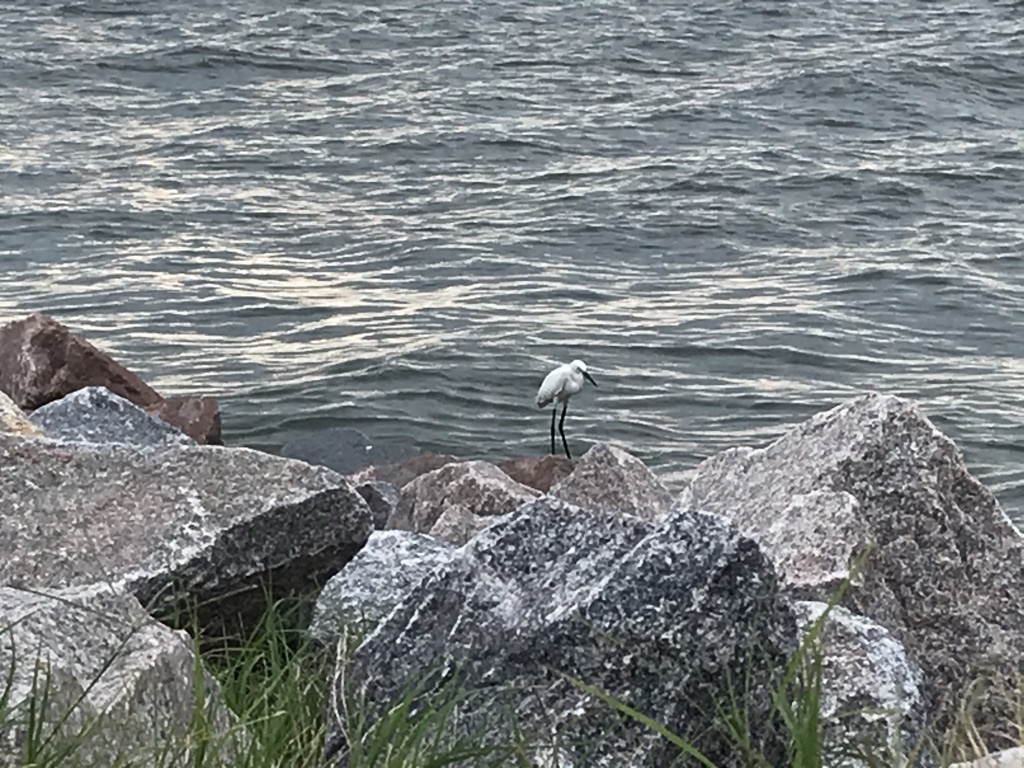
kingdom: Animalia
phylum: Chordata
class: Aves
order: Pelecaniformes
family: Ardeidae
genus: Egretta
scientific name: Egretta thula
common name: Snowy egret
